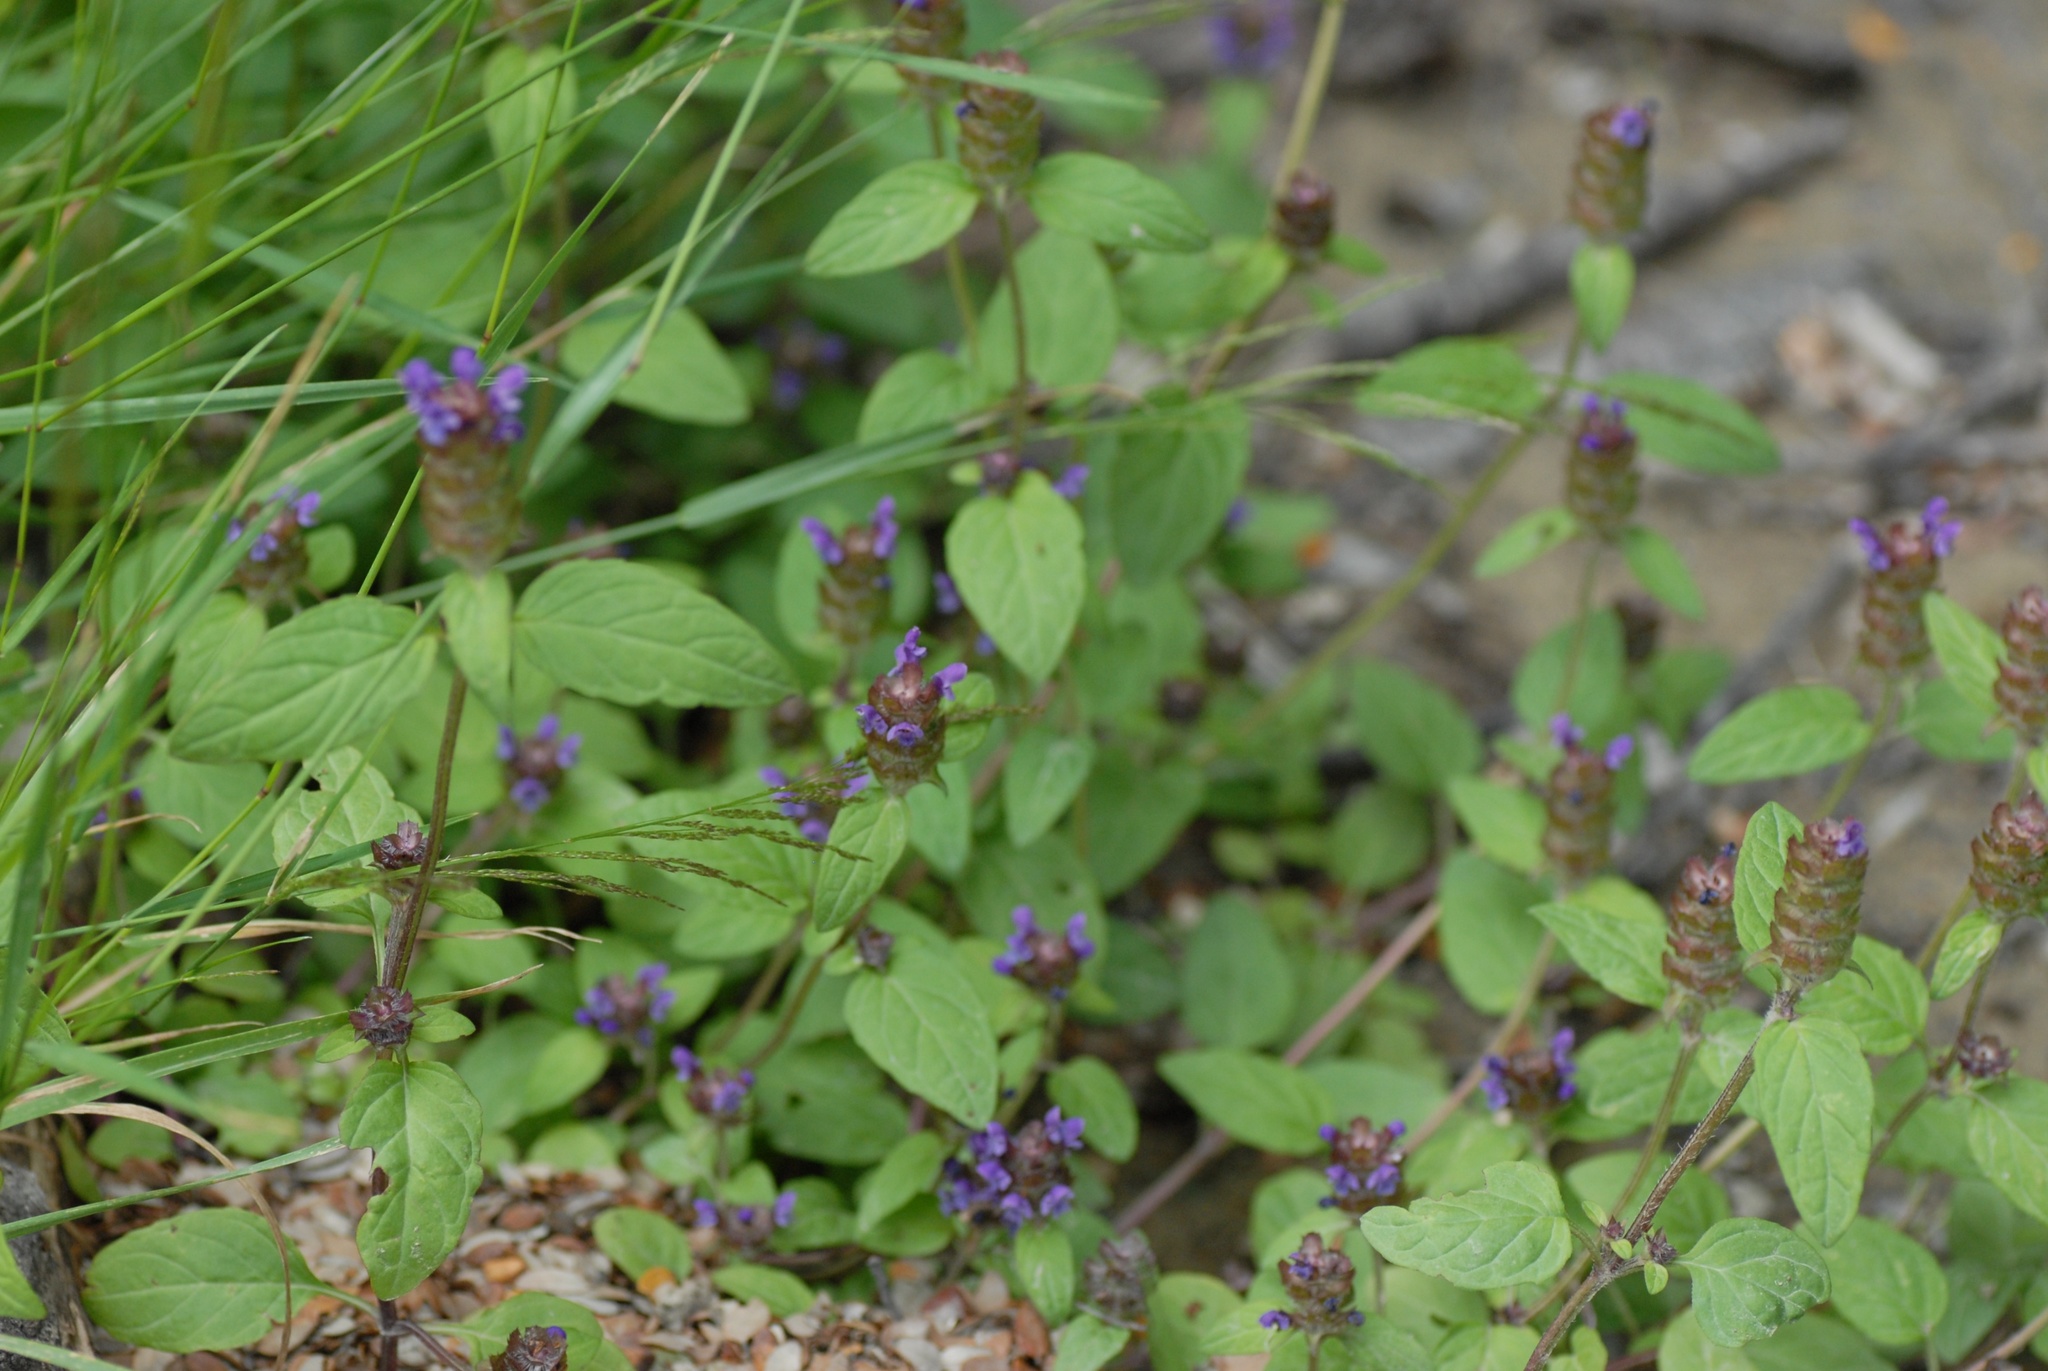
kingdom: Plantae
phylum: Tracheophyta
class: Magnoliopsida
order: Lamiales
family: Lamiaceae
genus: Prunella
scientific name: Prunella vulgaris
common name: Heal-all
